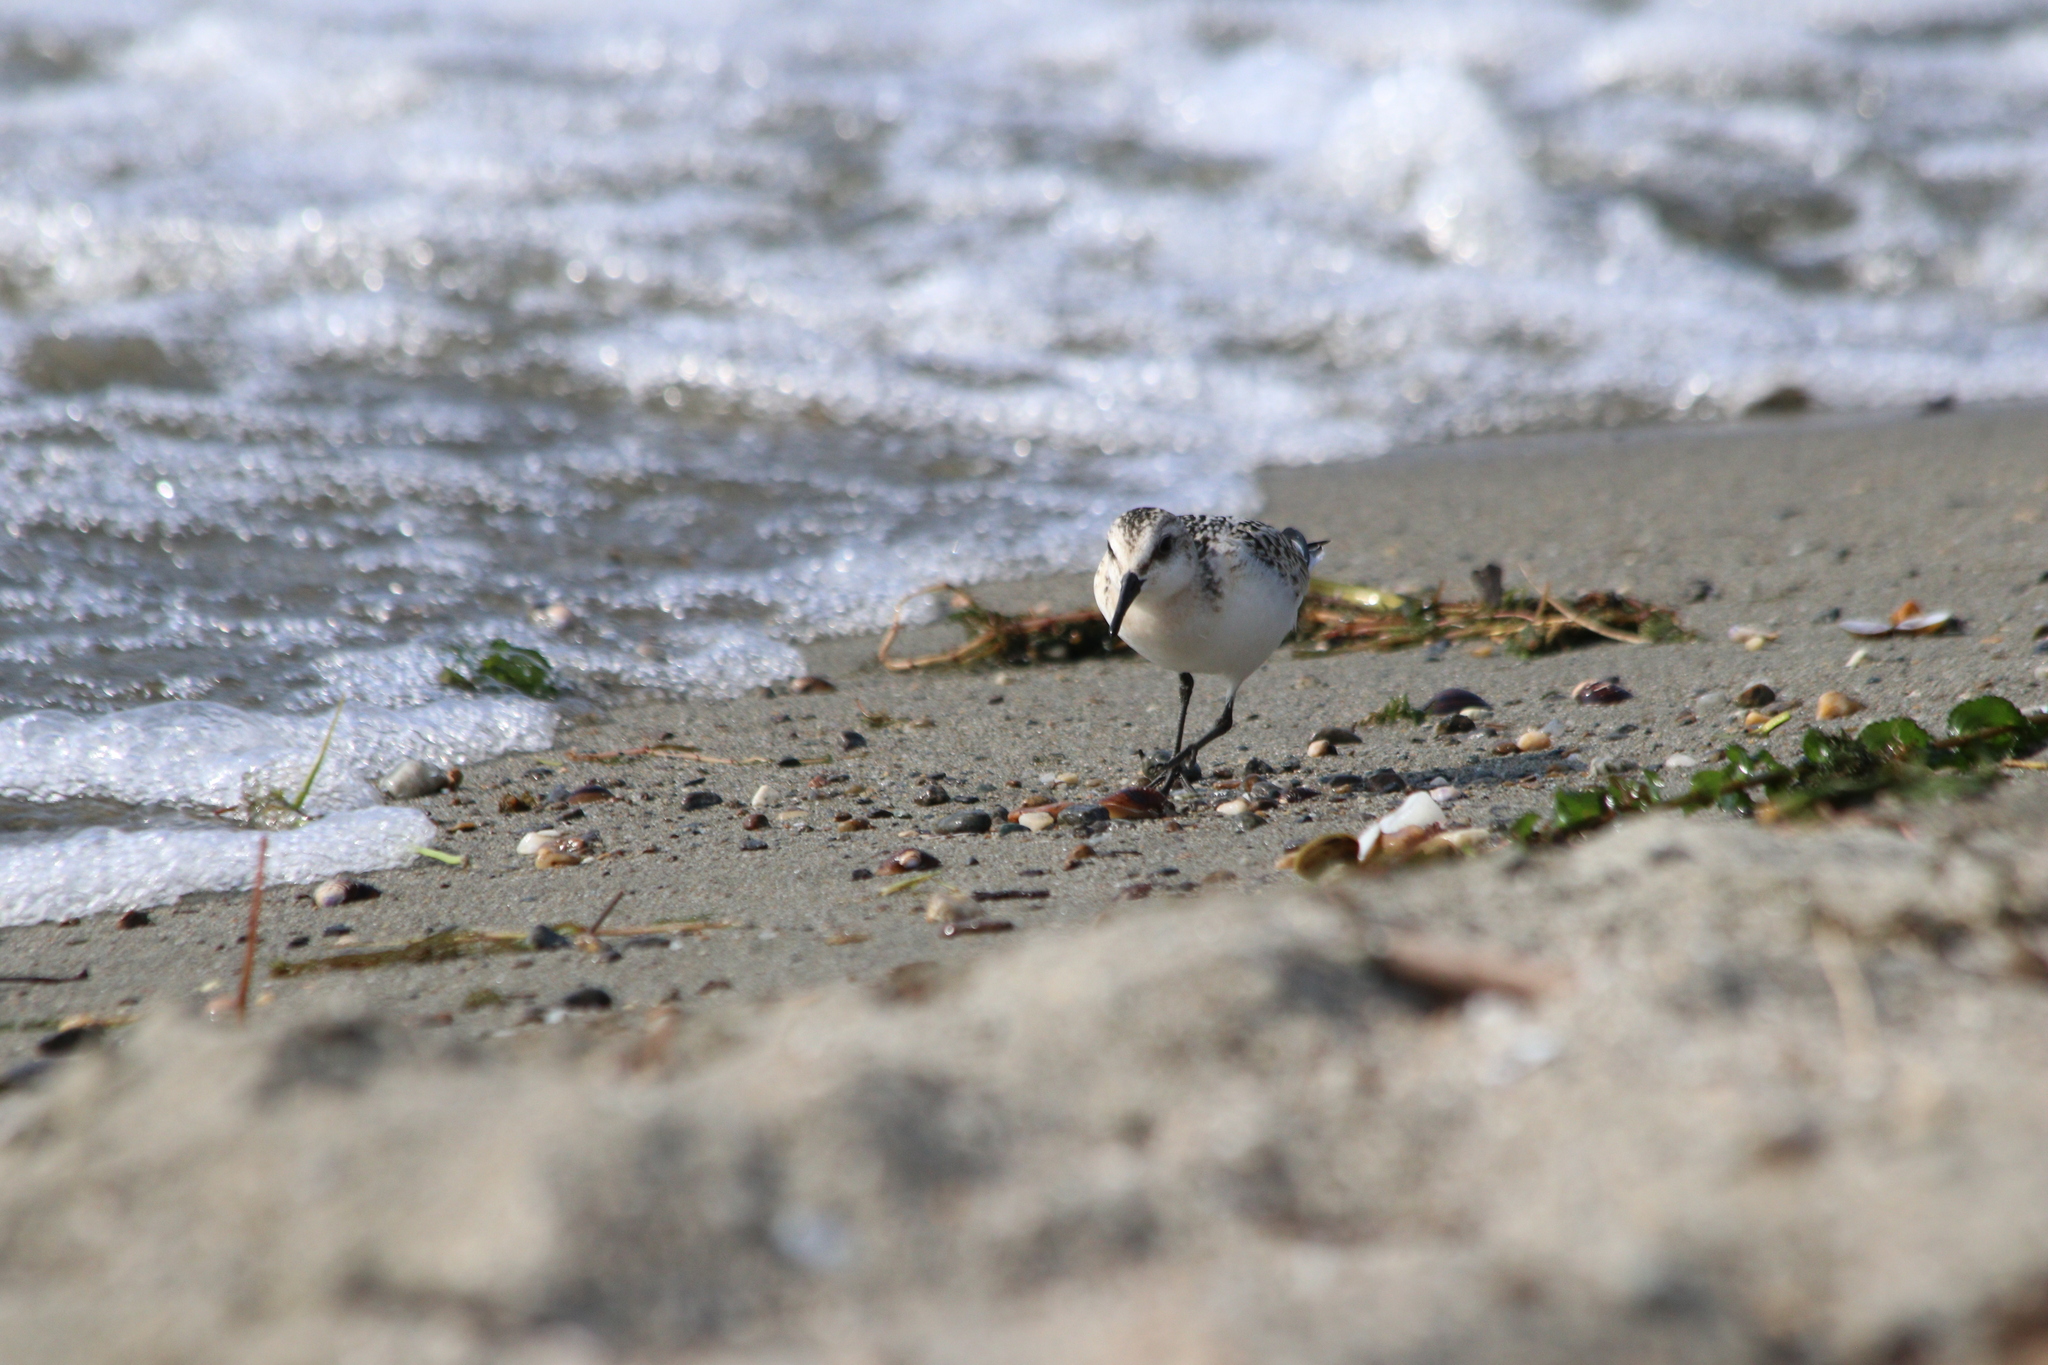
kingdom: Animalia
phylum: Chordata
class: Aves
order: Charadriiformes
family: Scolopacidae
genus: Calidris
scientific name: Calidris alba
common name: Sanderling
